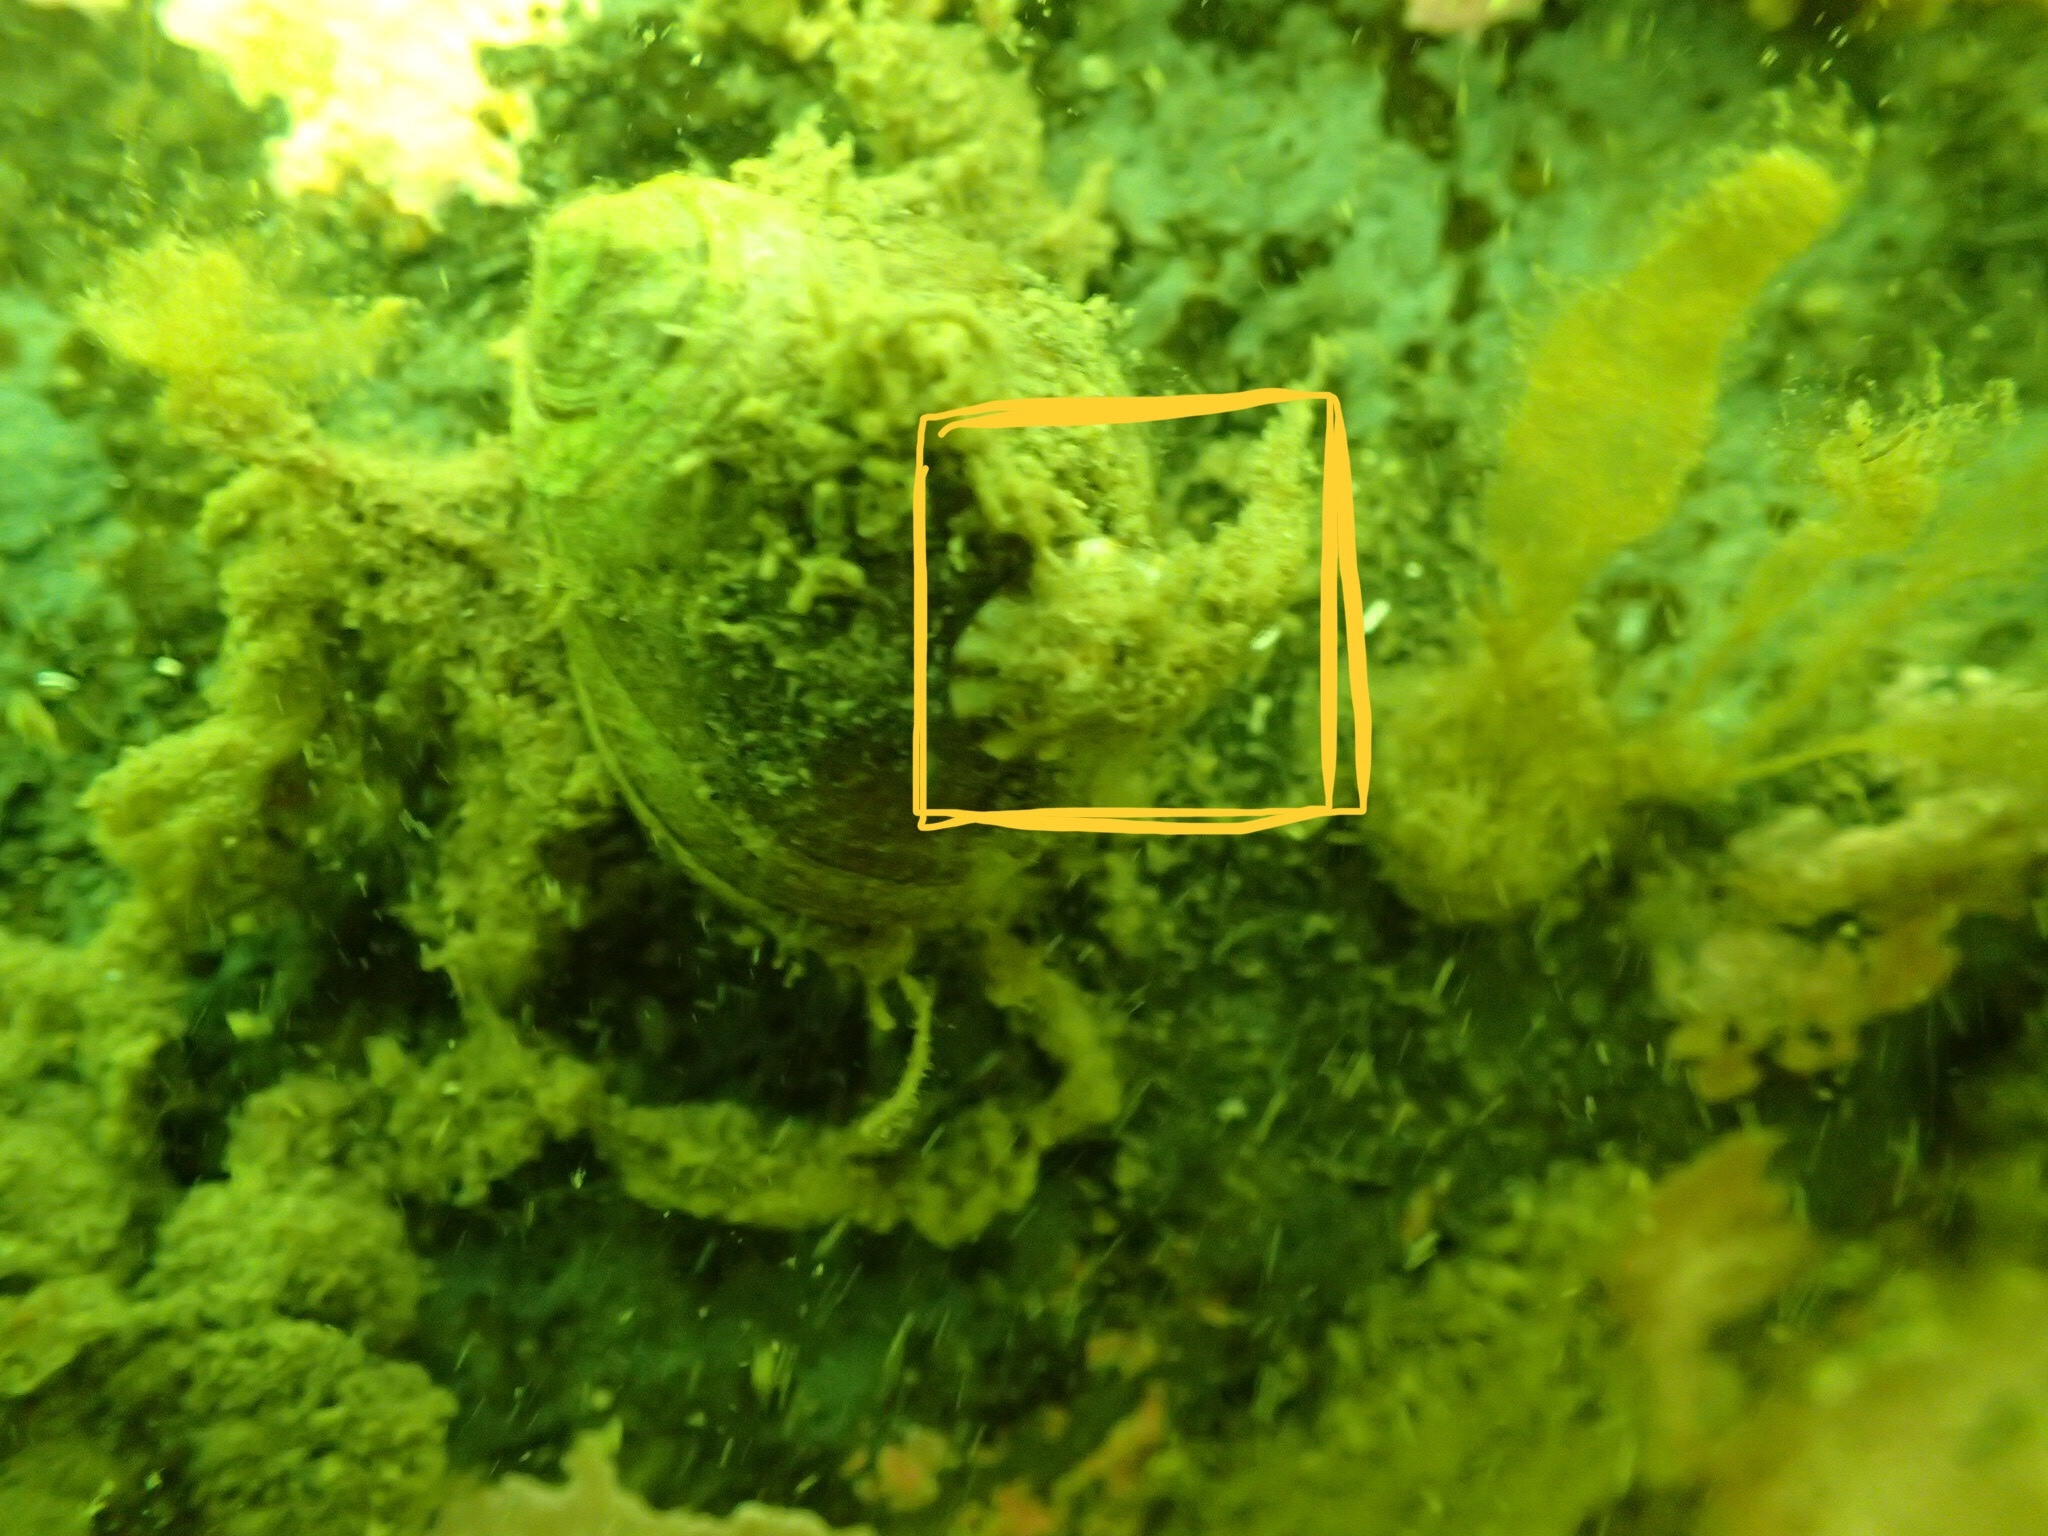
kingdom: Animalia
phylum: Mollusca
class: Gastropoda
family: Lottiidae
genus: Testudinalia
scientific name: Testudinalia testudinalis
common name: Common tortoiseshell limpet
